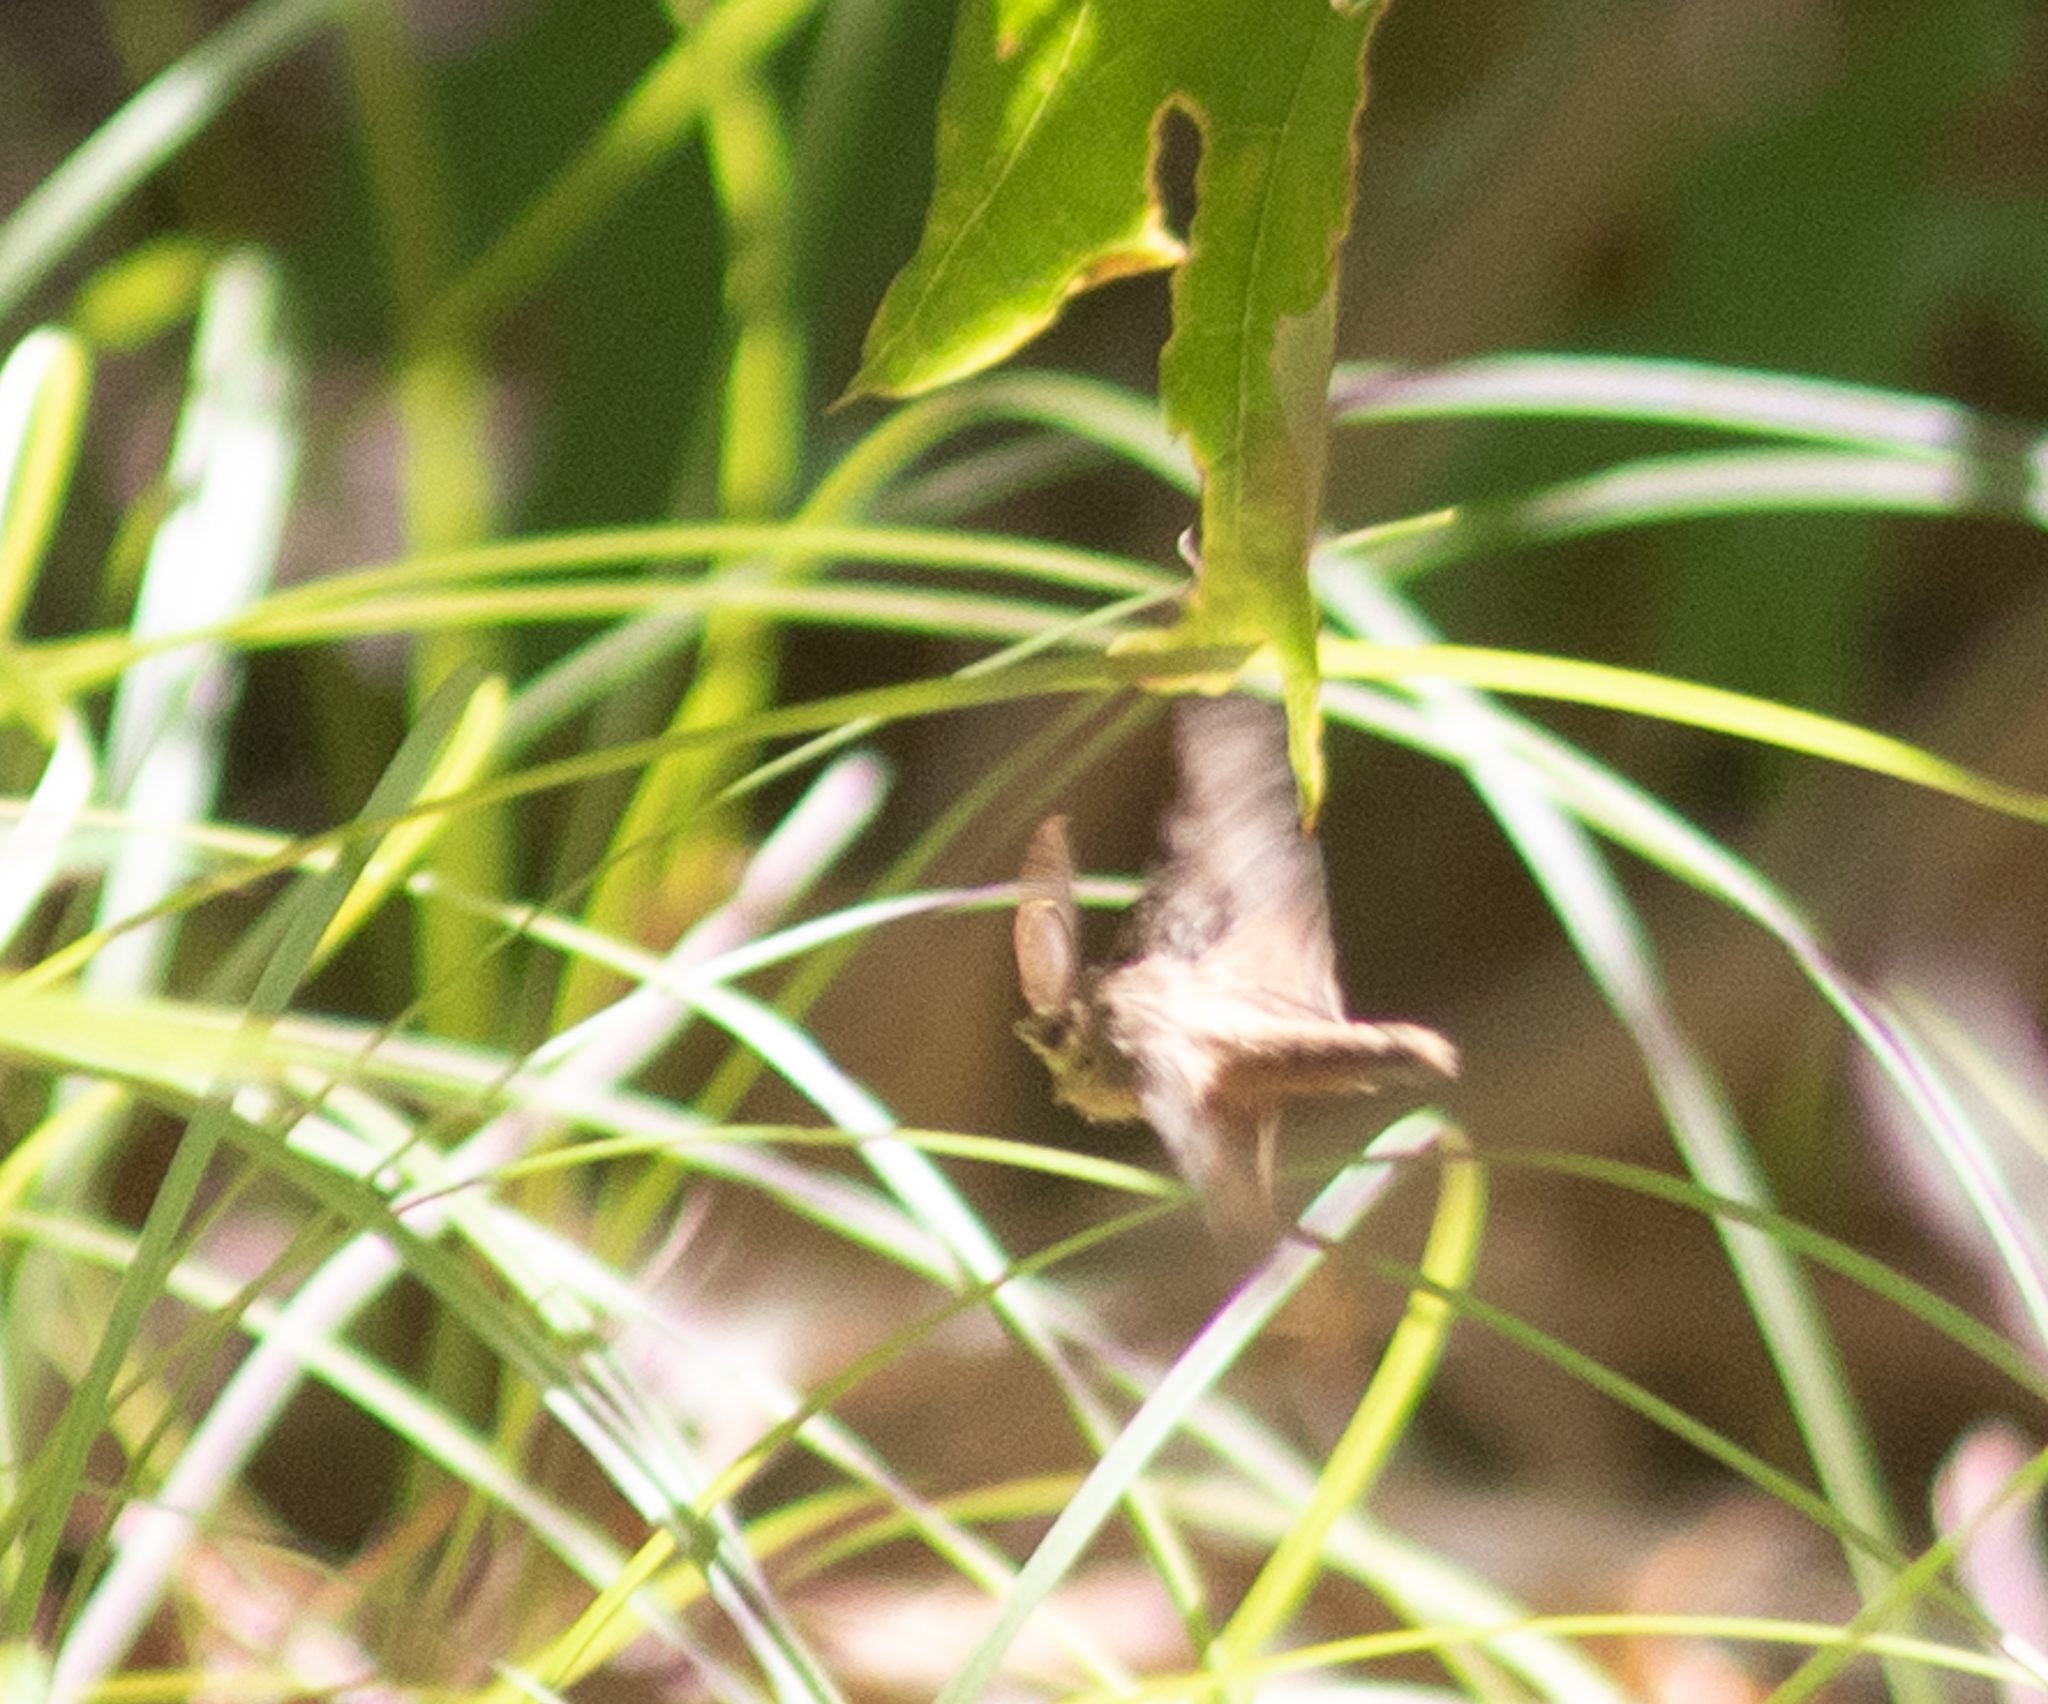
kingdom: Animalia
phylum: Arthropoda
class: Insecta
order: Lepidoptera
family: Erebidae
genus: Lymantria
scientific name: Lymantria dispar
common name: Gypsy moth
